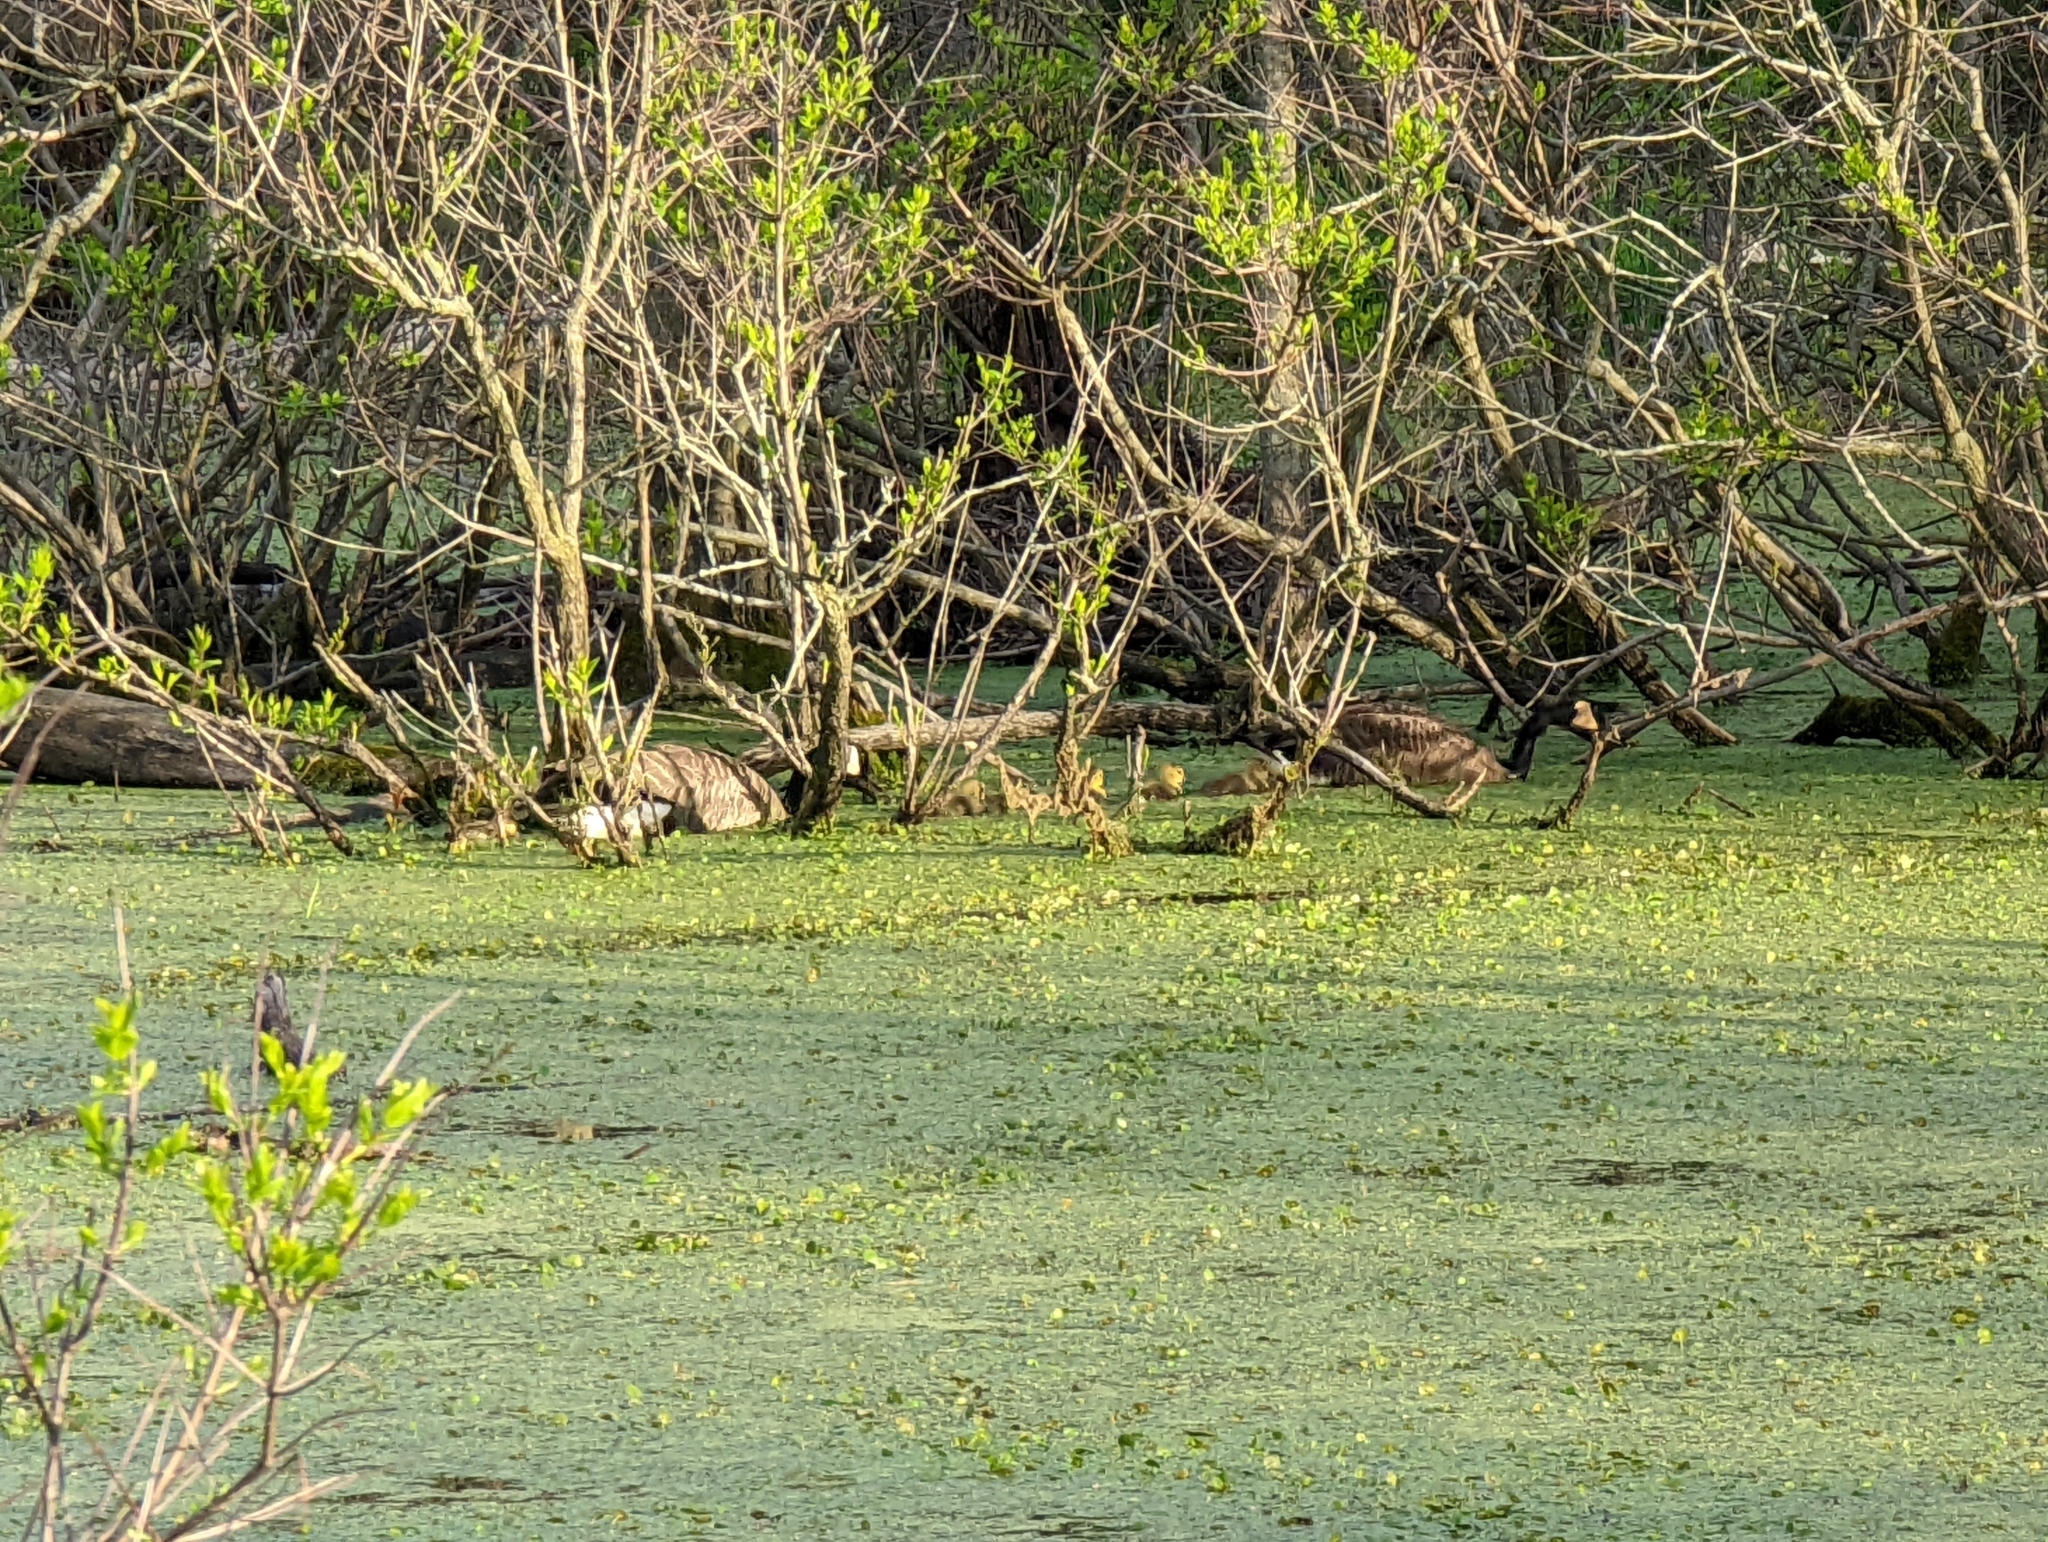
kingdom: Animalia
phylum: Chordata
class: Aves
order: Anseriformes
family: Anatidae
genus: Branta
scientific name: Branta canadensis
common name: Canada goose
